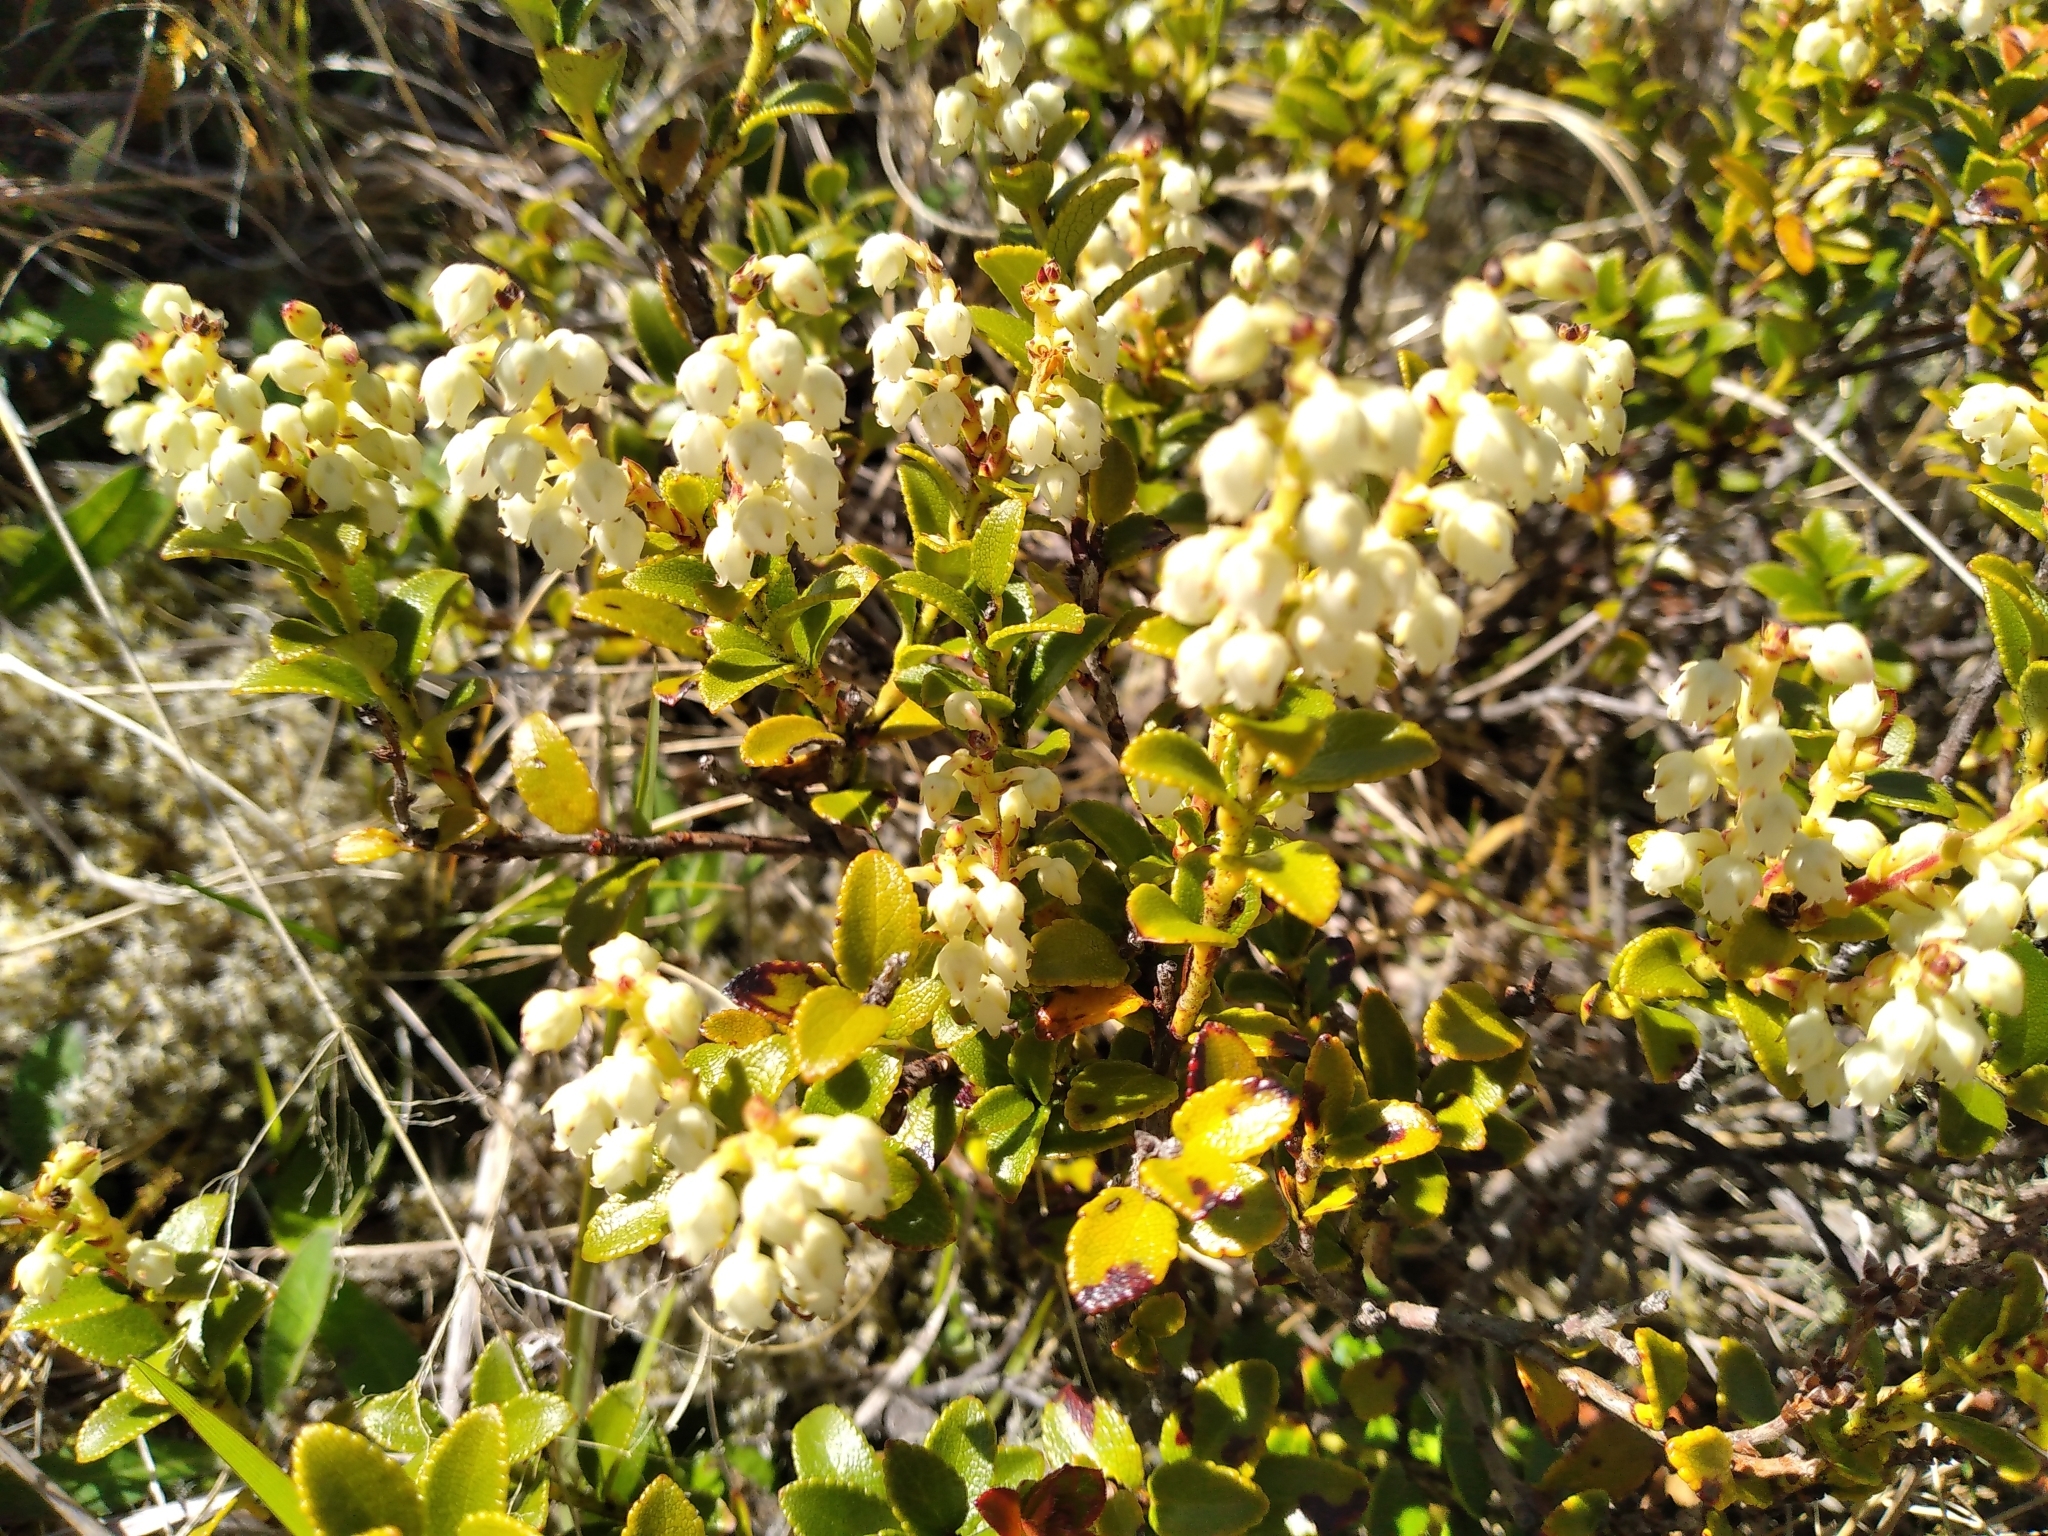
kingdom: Plantae
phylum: Tracheophyta
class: Magnoliopsida
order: Ericales
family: Ericaceae
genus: Gaultheria
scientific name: Gaultheria crassa
